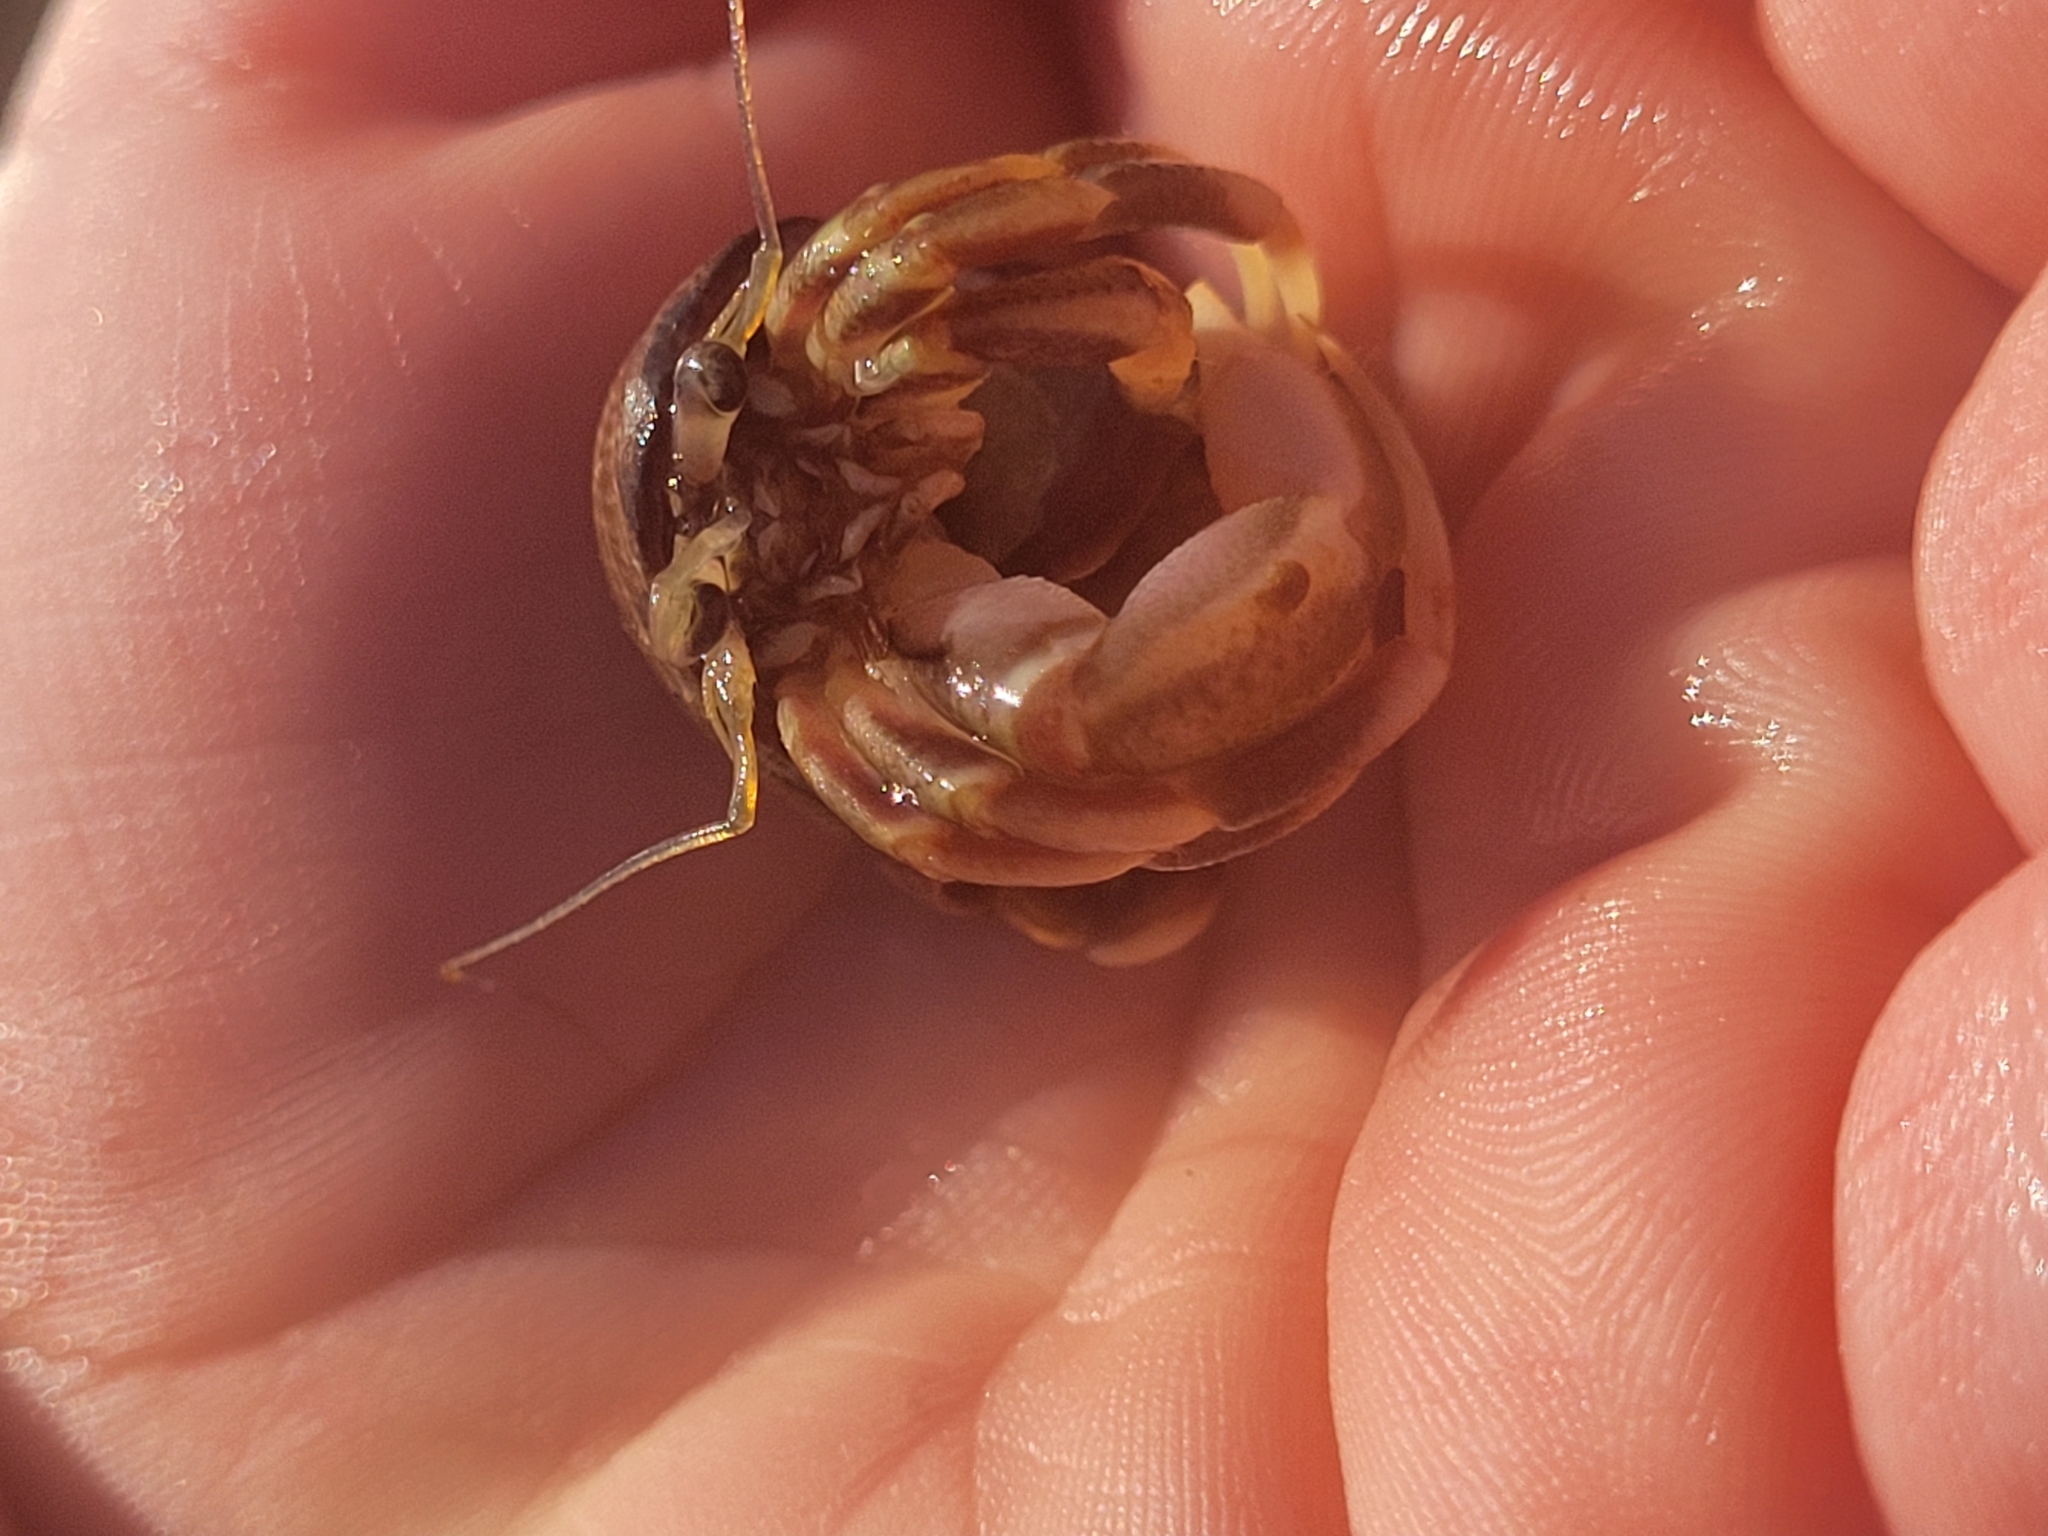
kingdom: Animalia
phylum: Arthropoda
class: Malacostraca
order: Decapoda
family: Paguridae
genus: Pagurus
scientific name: Pagurus longicarpus
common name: Long-armed hermit crab
